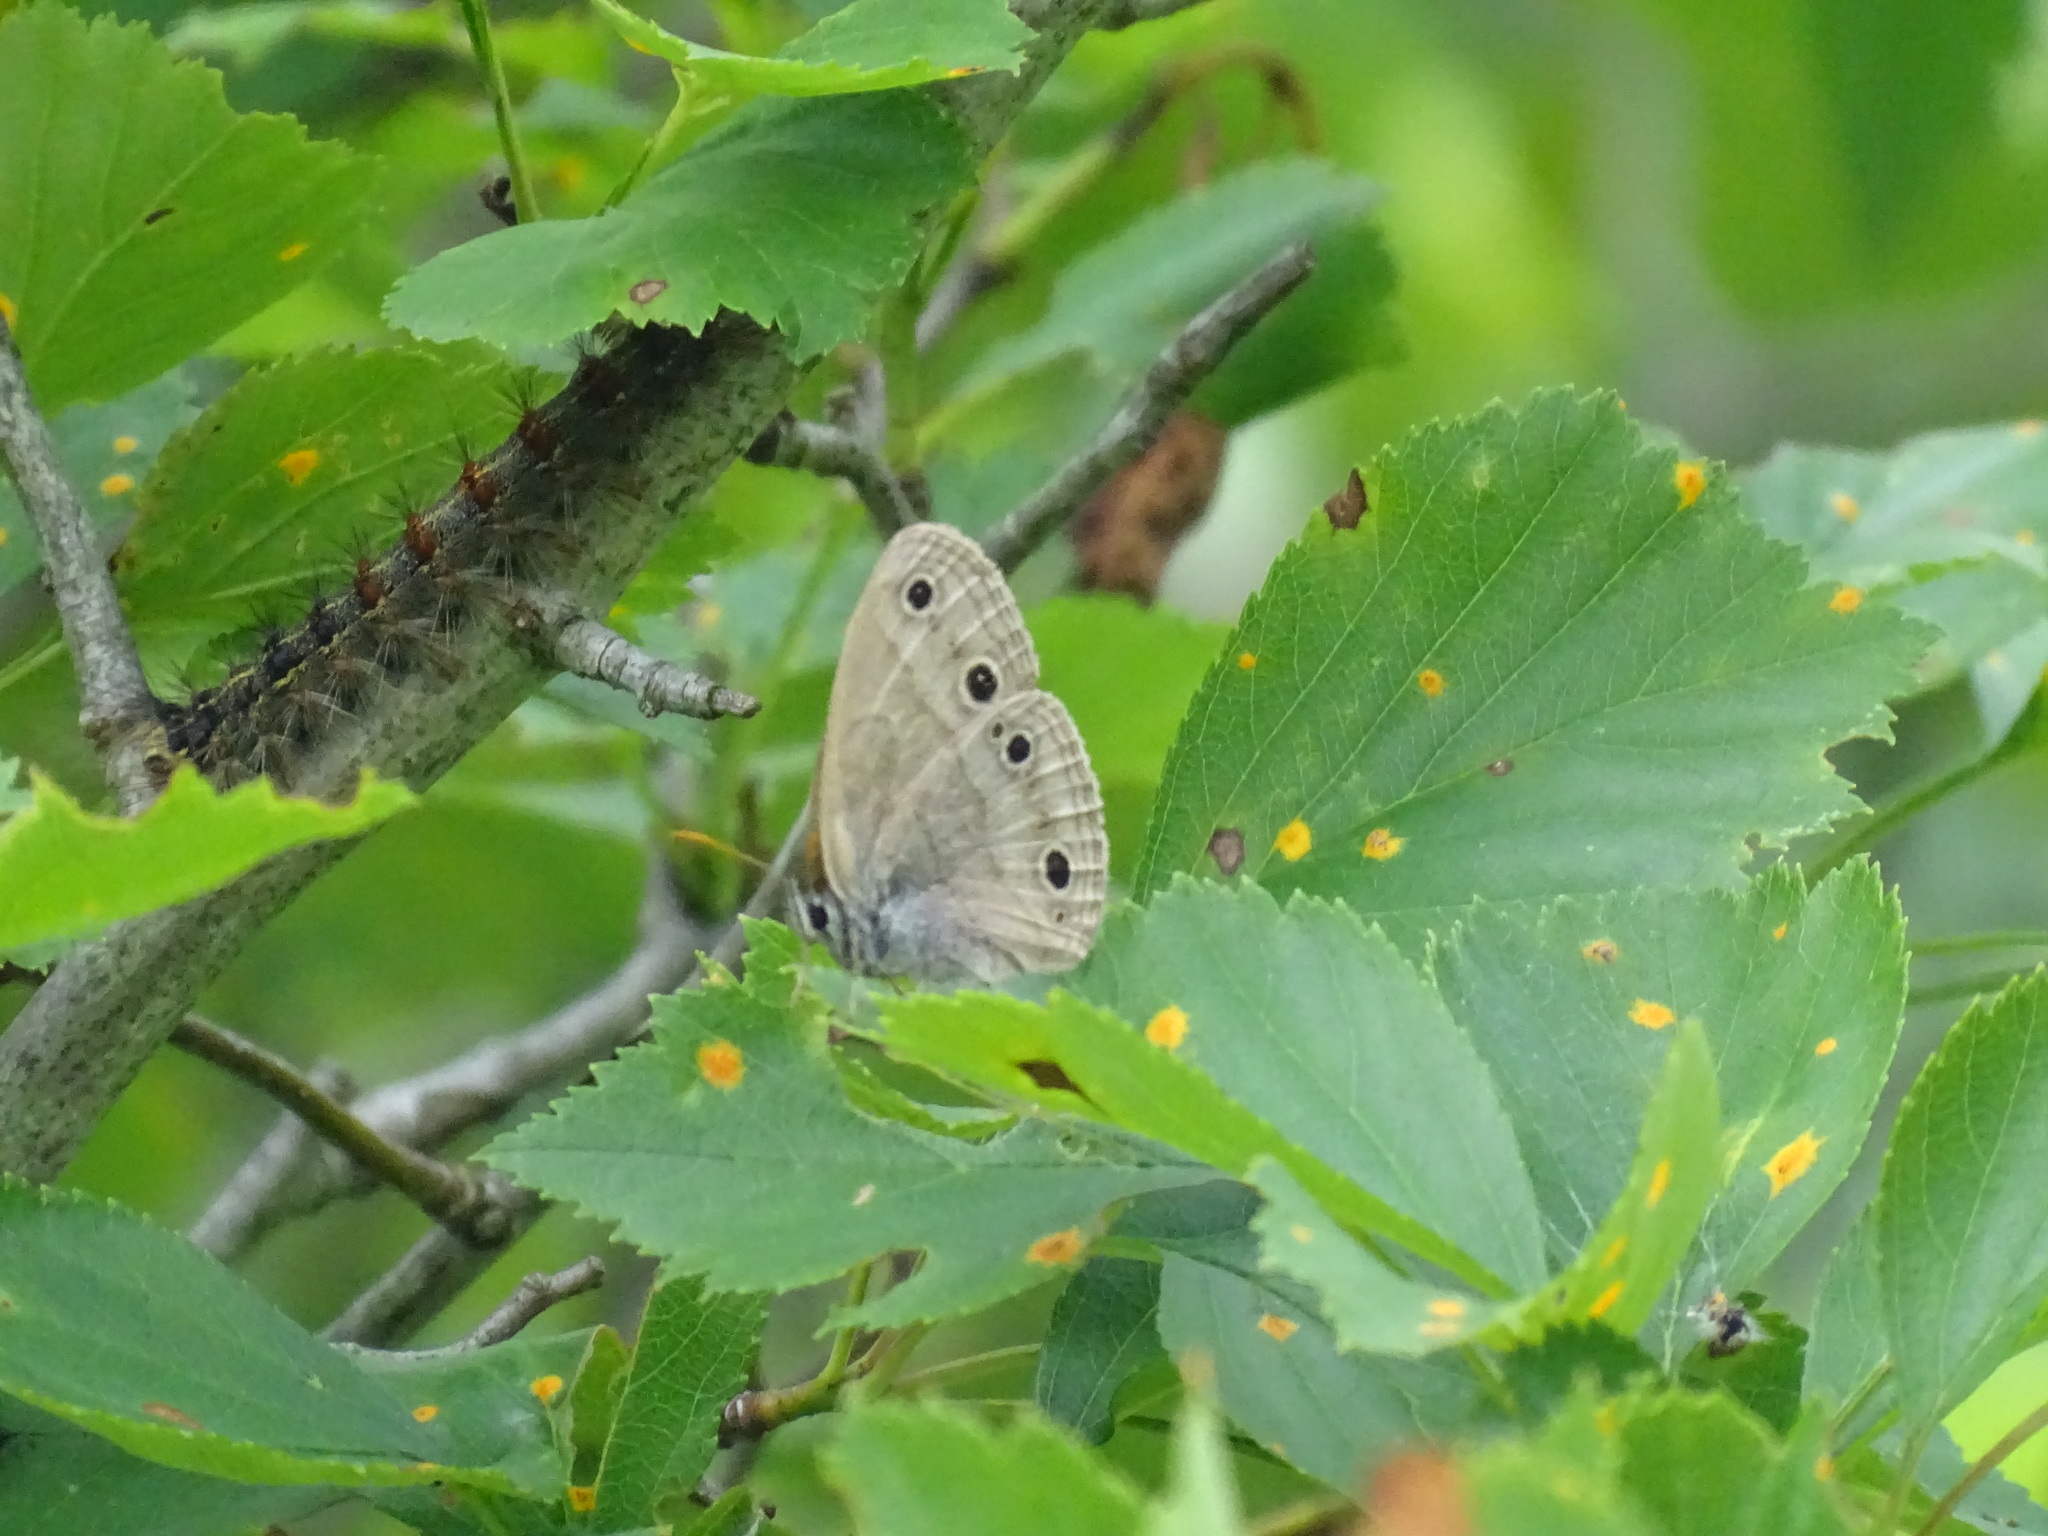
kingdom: Animalia
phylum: Arthropoda
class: Insecta
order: Lepidoptera
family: Nymphalidae
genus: Euptychia
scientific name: Euptychia cymela
